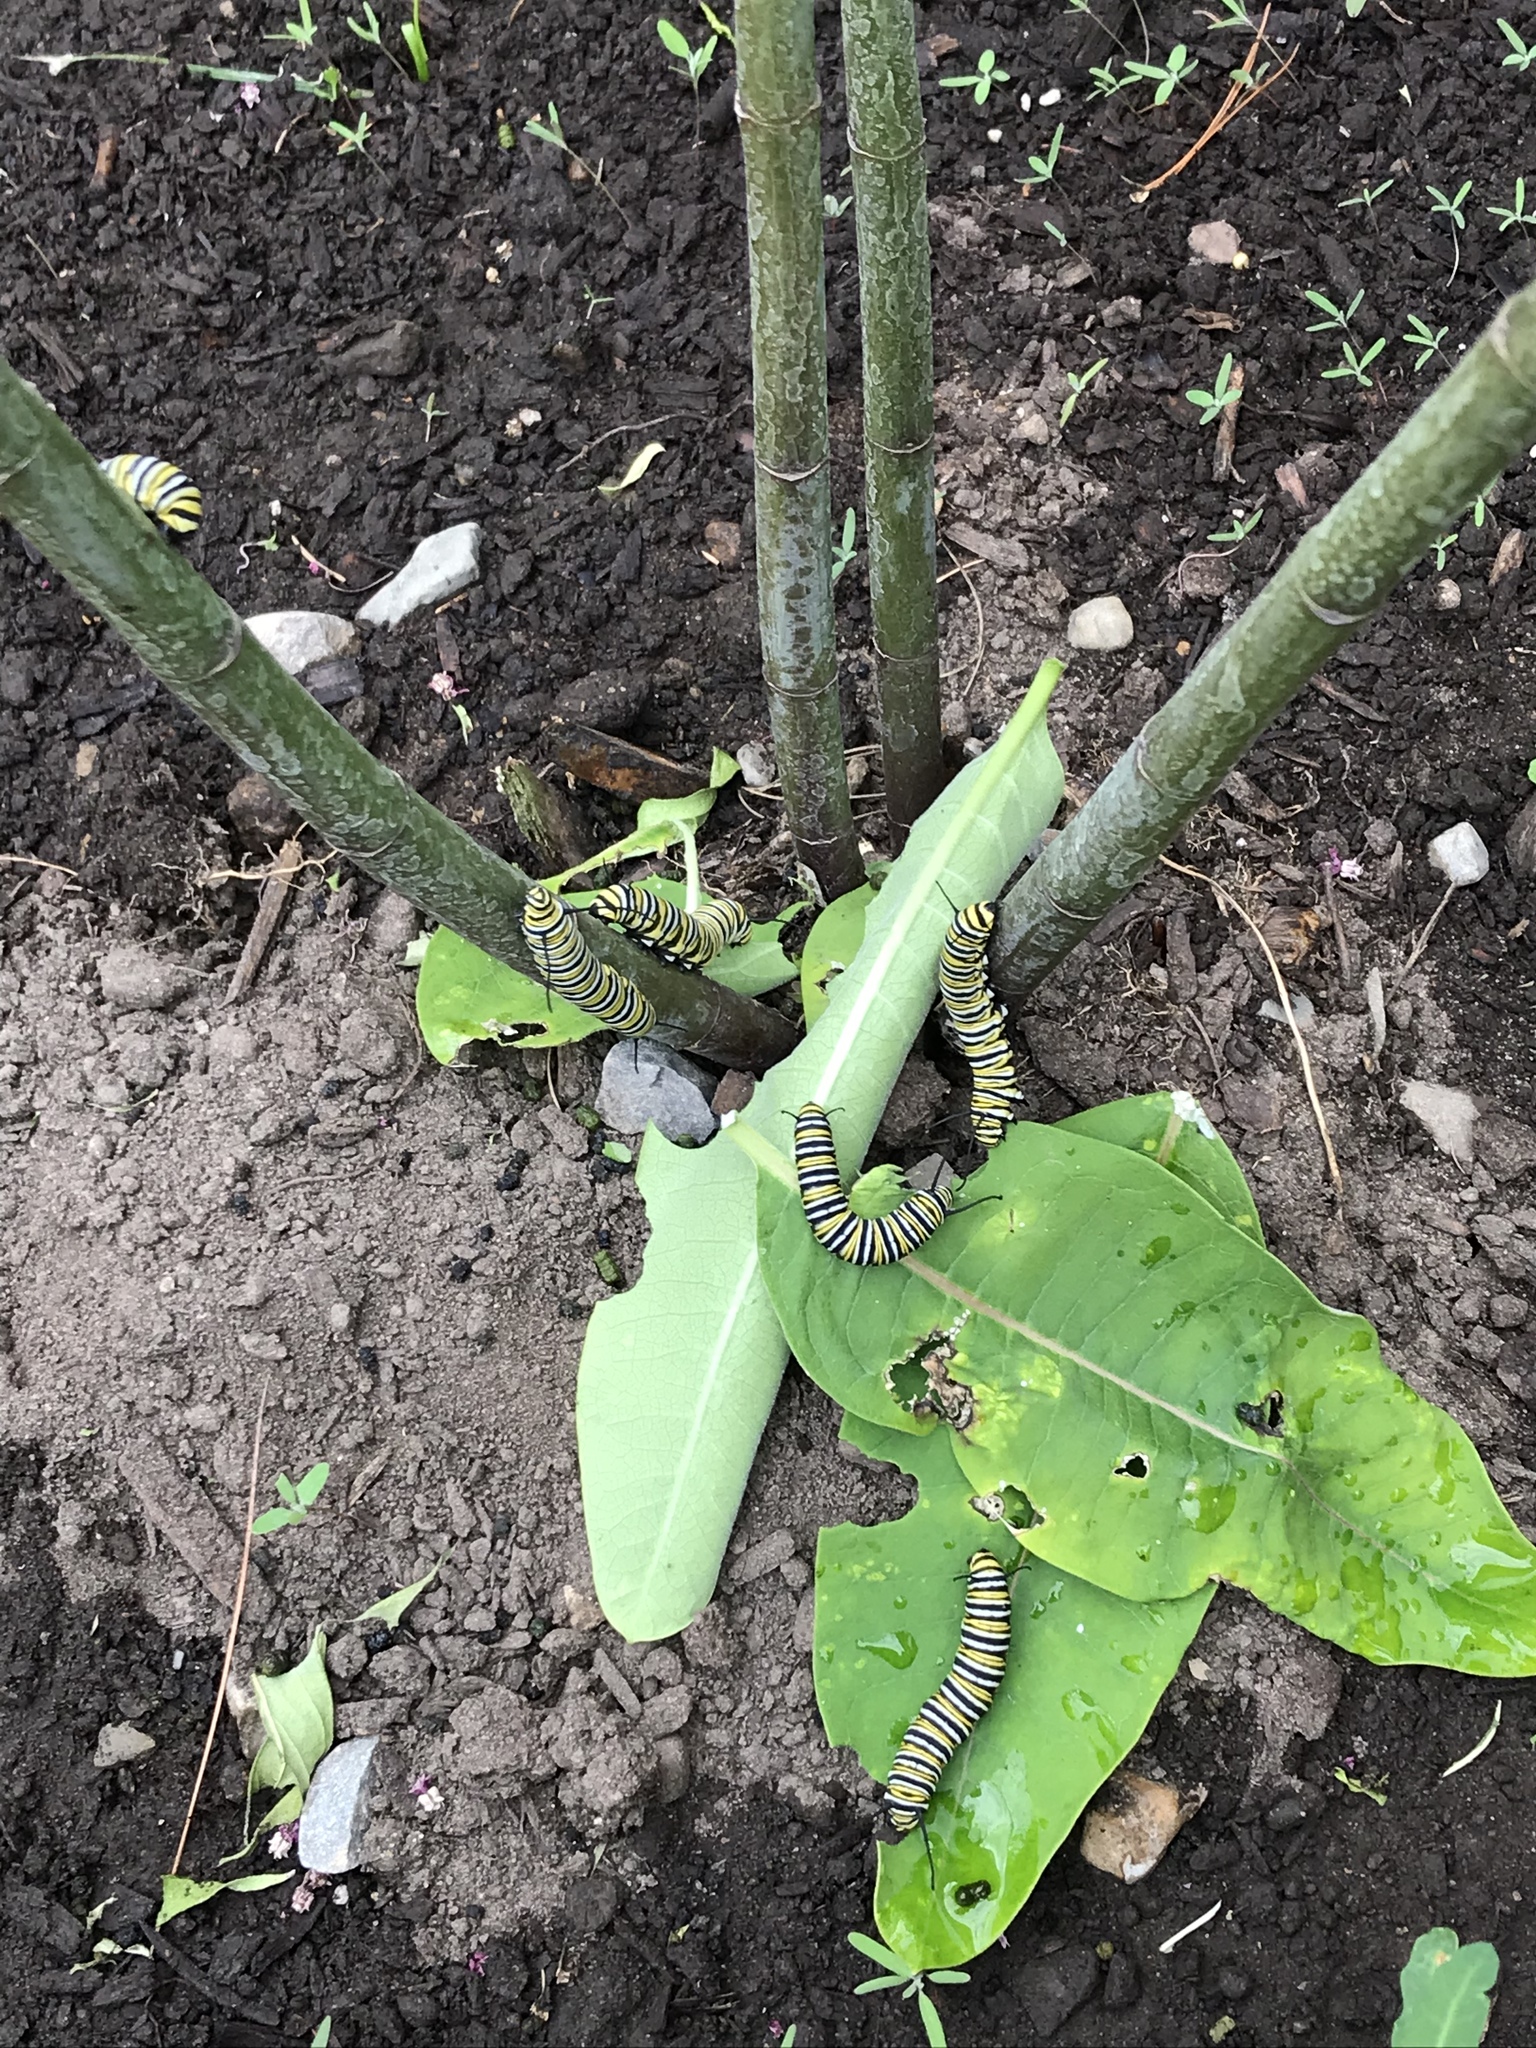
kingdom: Animalia
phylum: Arthropoda
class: Insecta
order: Lepidoptera
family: Nymphalidae
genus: Danaus
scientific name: Danaus plexippus
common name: Monarch
